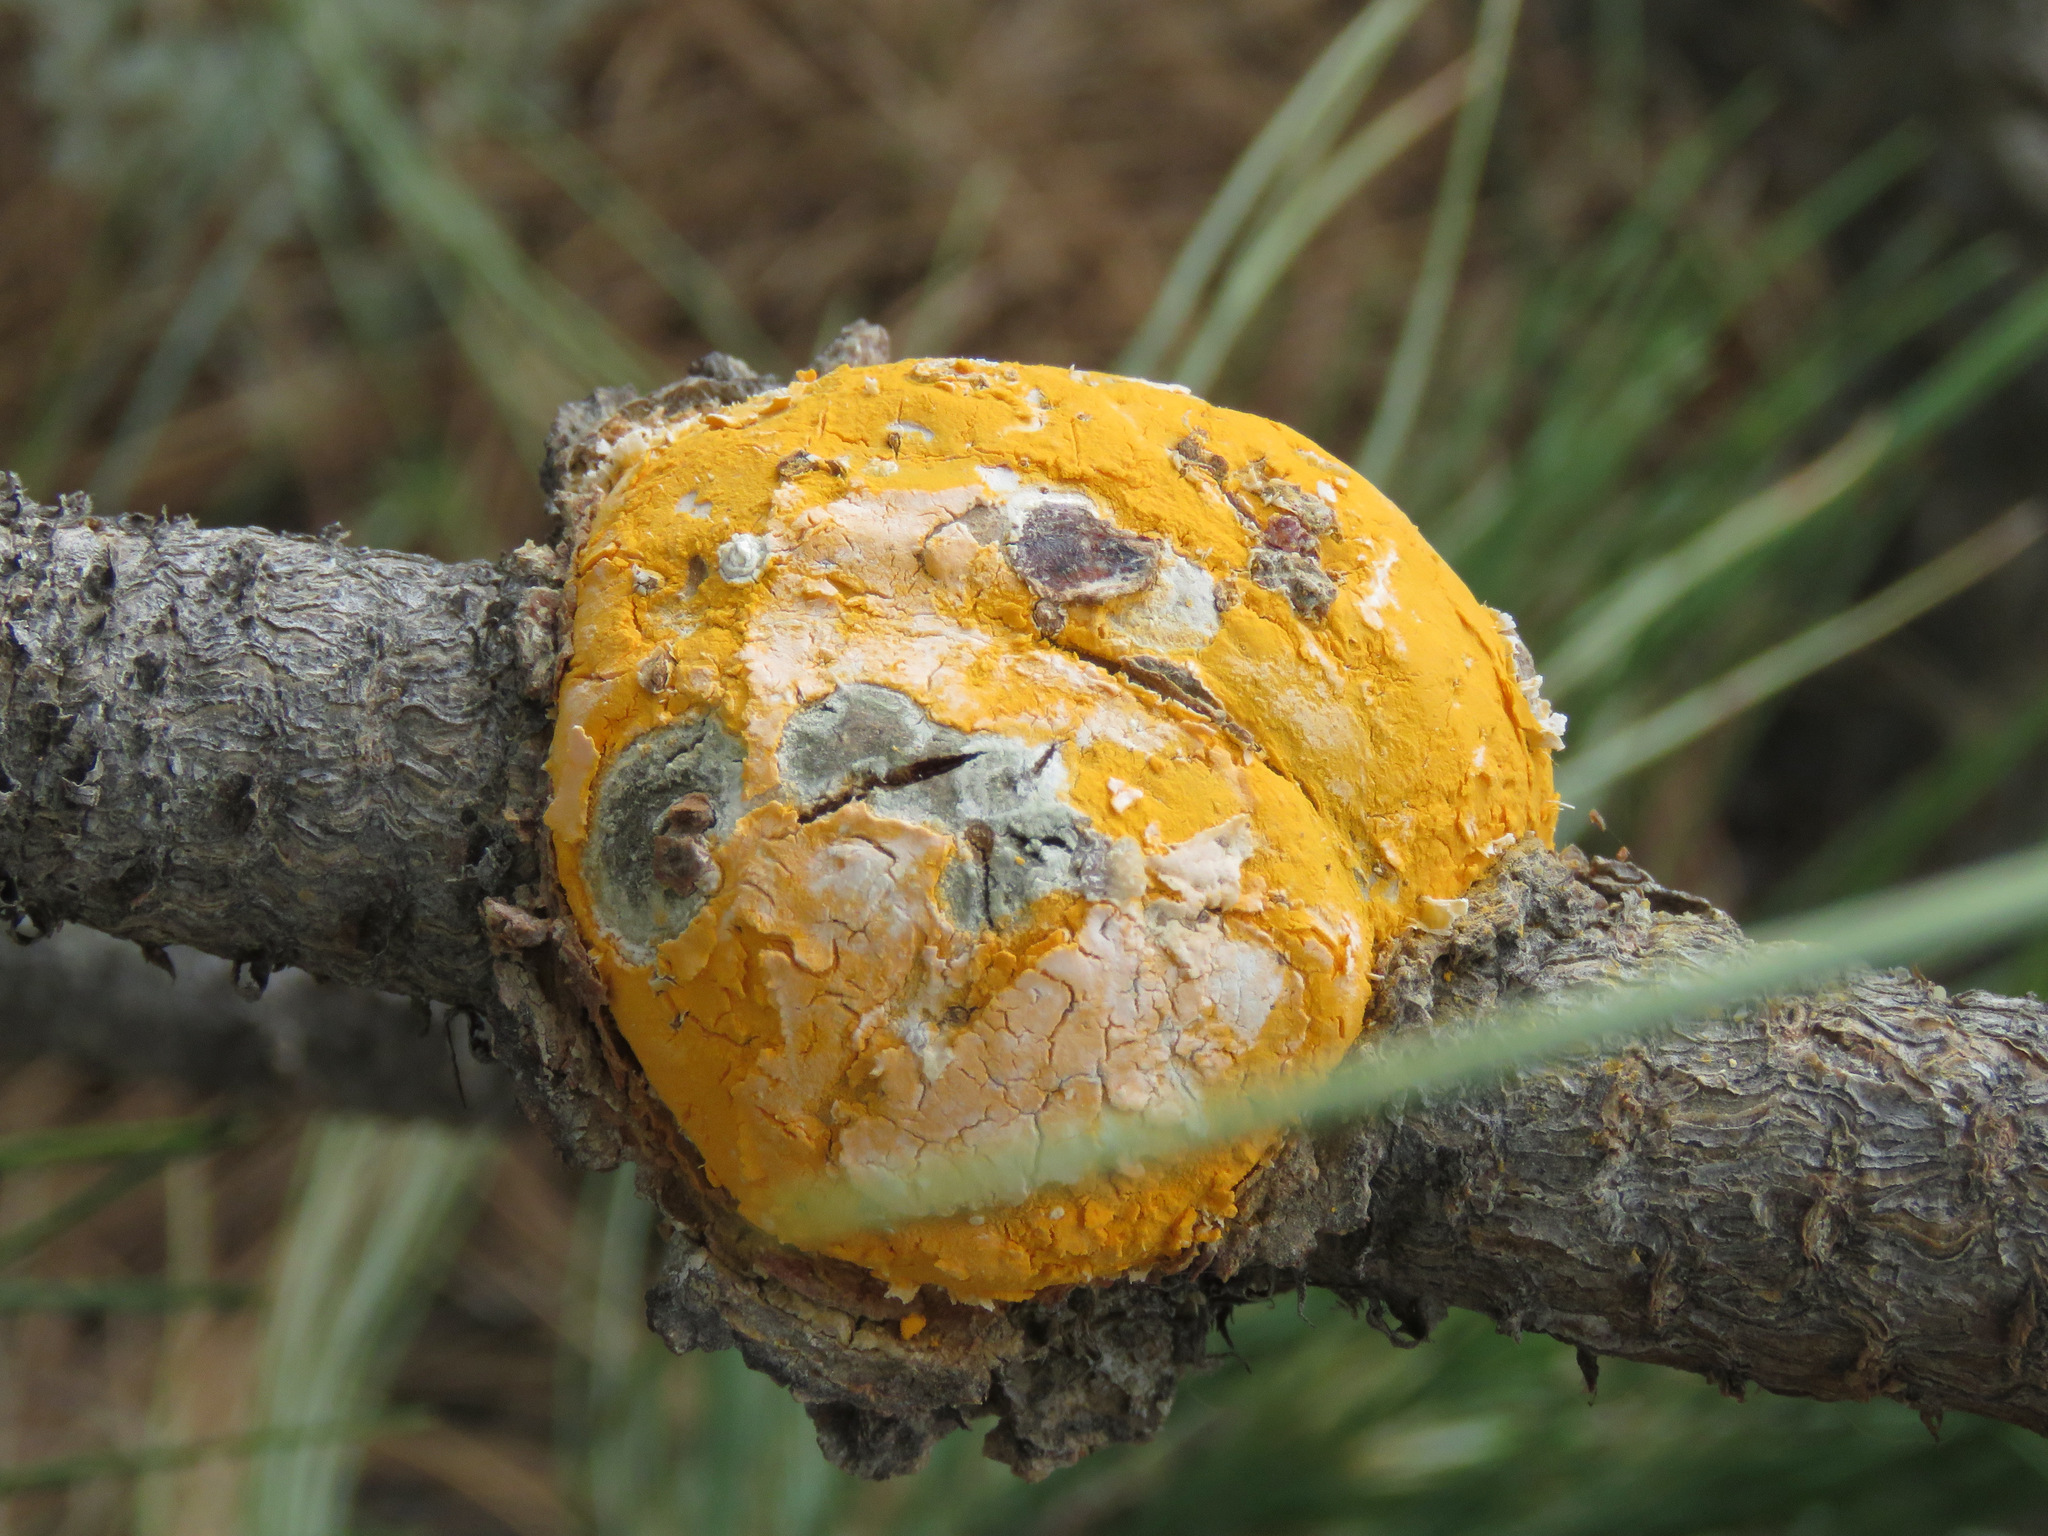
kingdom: Fungi
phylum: Basidiomycota
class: Pucciniomycetes
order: Pucciniales
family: Cronartiaceae
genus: Cronartium
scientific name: Cronartium harknessii
